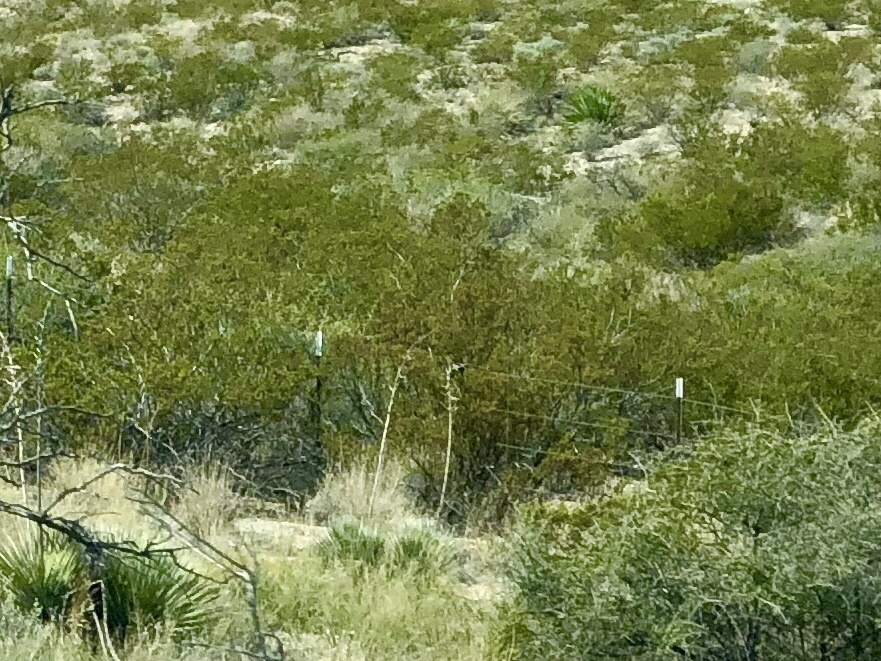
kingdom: Plantae
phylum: Tracheophyta
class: Magnoliopsida
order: Zygophyllales
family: Zygophyllaceae
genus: Larrea
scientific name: Larrea tridentata
